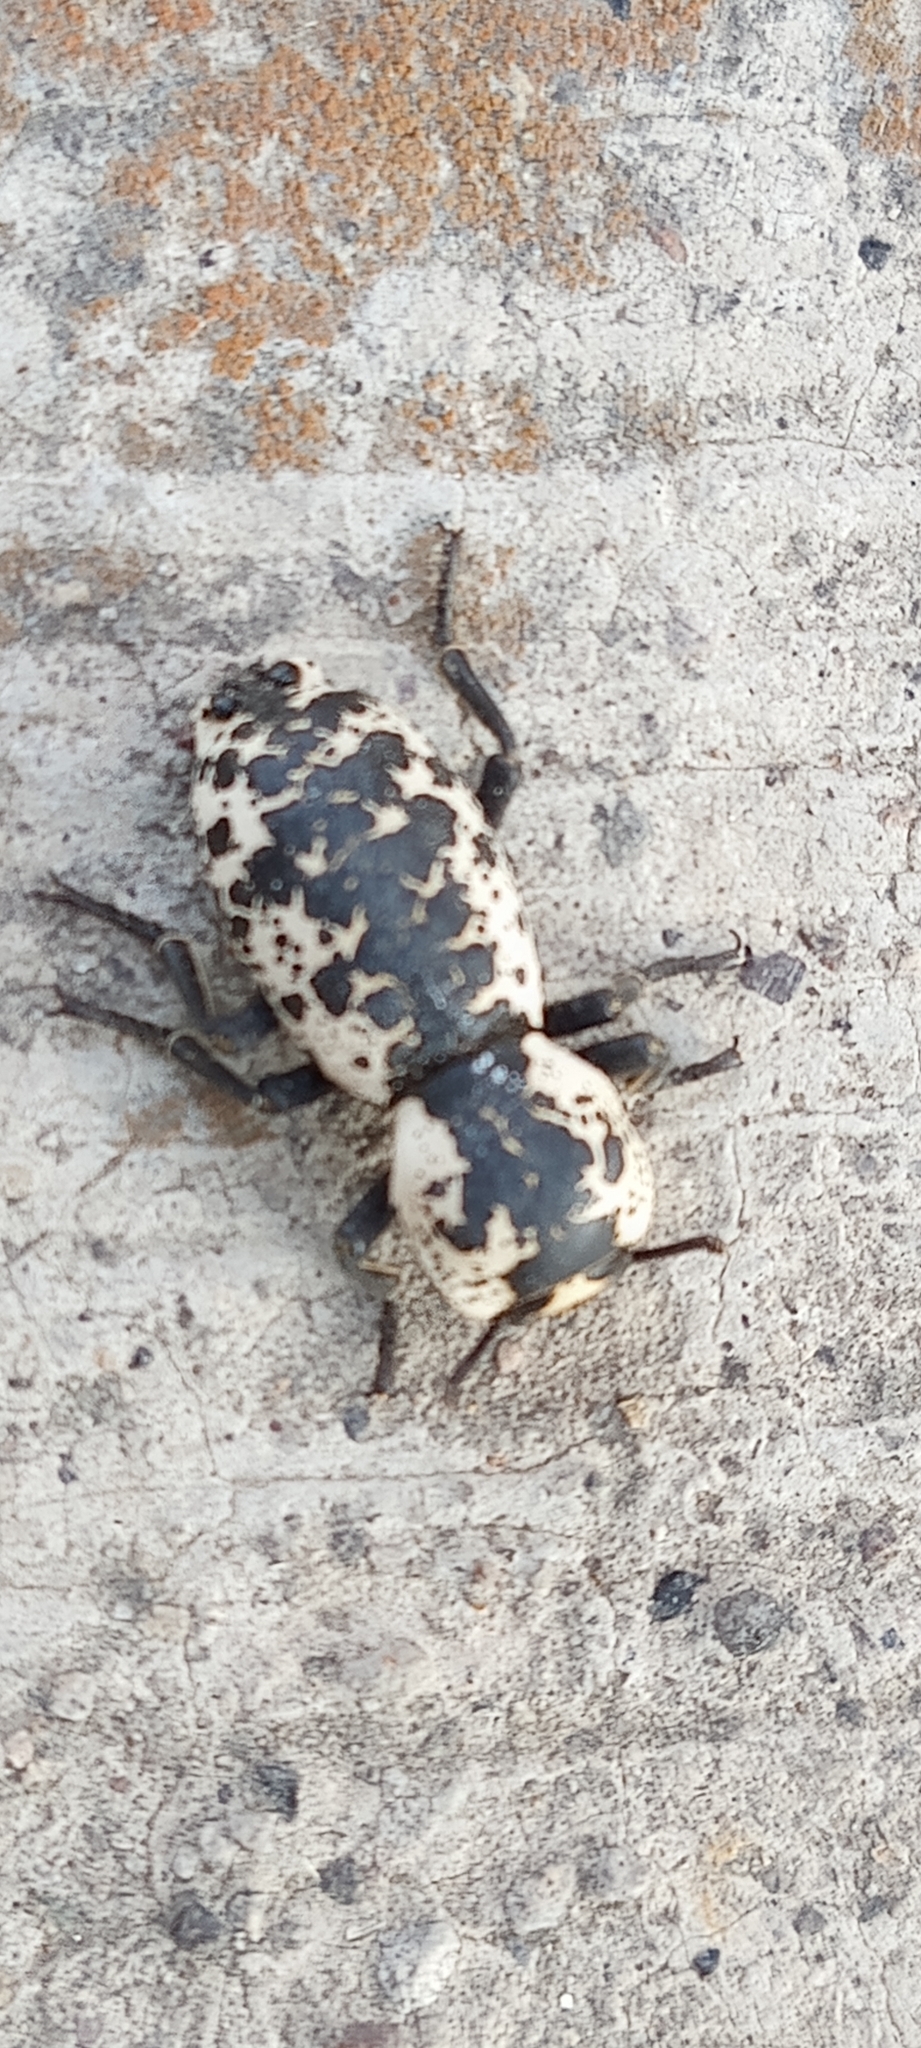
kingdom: Animalia
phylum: Arthropoda
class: Insecta
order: Coleoptera
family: Zopheridae
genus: Zopherus
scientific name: Zopherus nodulosus
